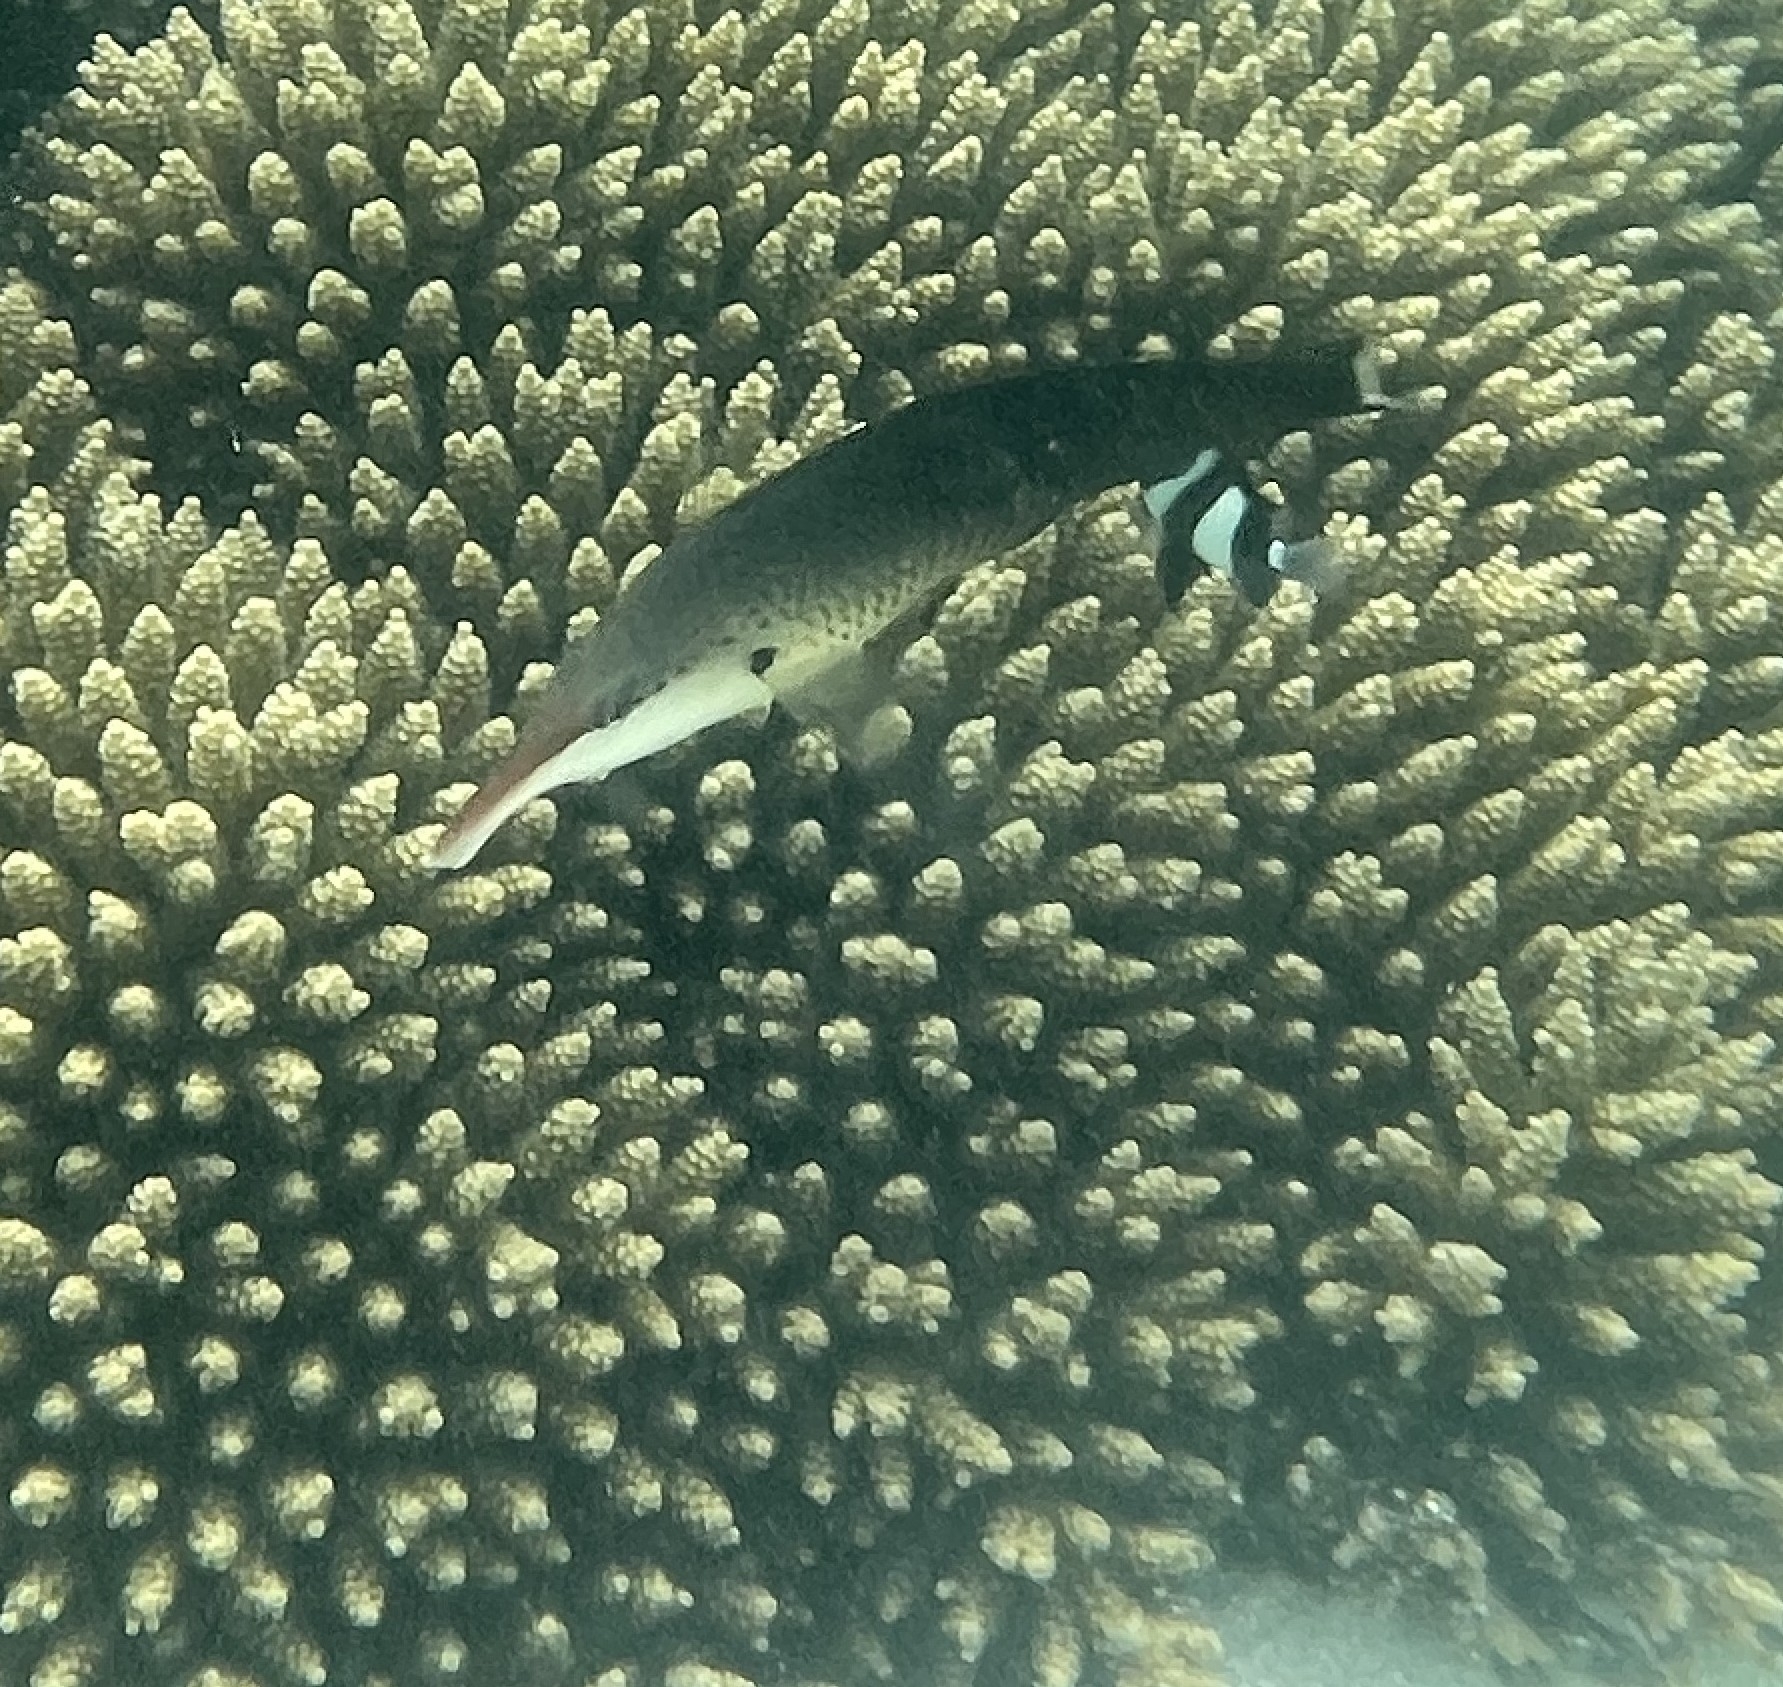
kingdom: Animalia
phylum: Chordata
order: Perciformes
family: Labridae
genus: Gomphosus
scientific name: Gomphosus caeruleus
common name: Bird wrasse
